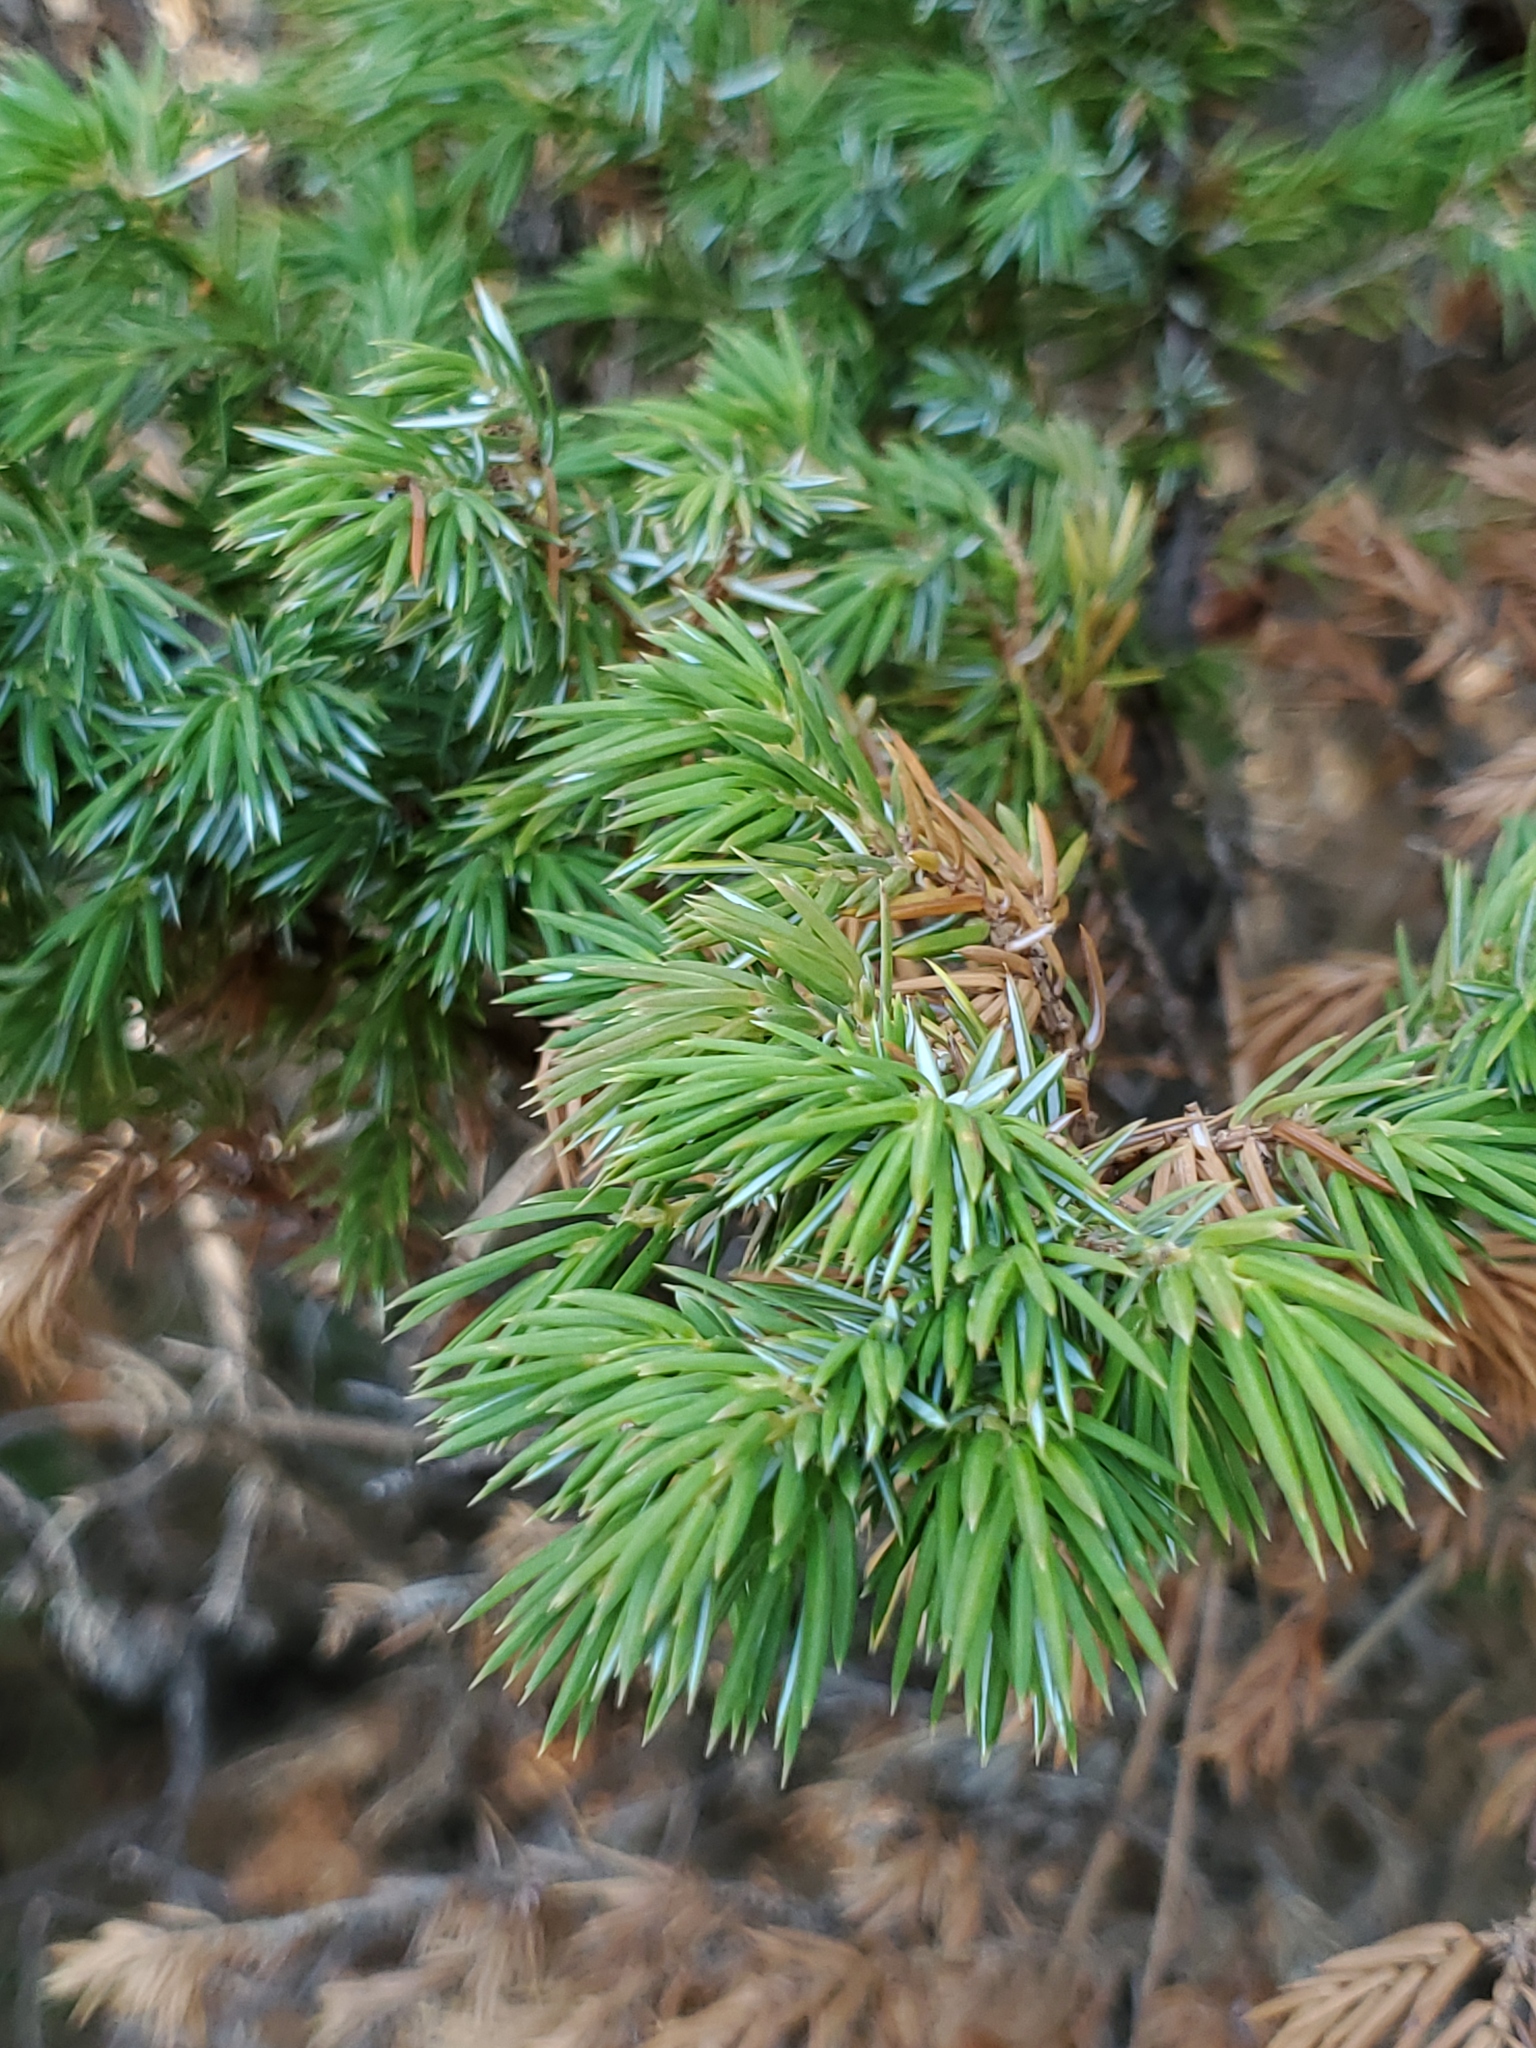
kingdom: Plantae
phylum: Tracheophyta
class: Pinopsida
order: Pinales
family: Cupressaceae
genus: Juniperus
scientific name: Juniperus communis
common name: Common juniper
